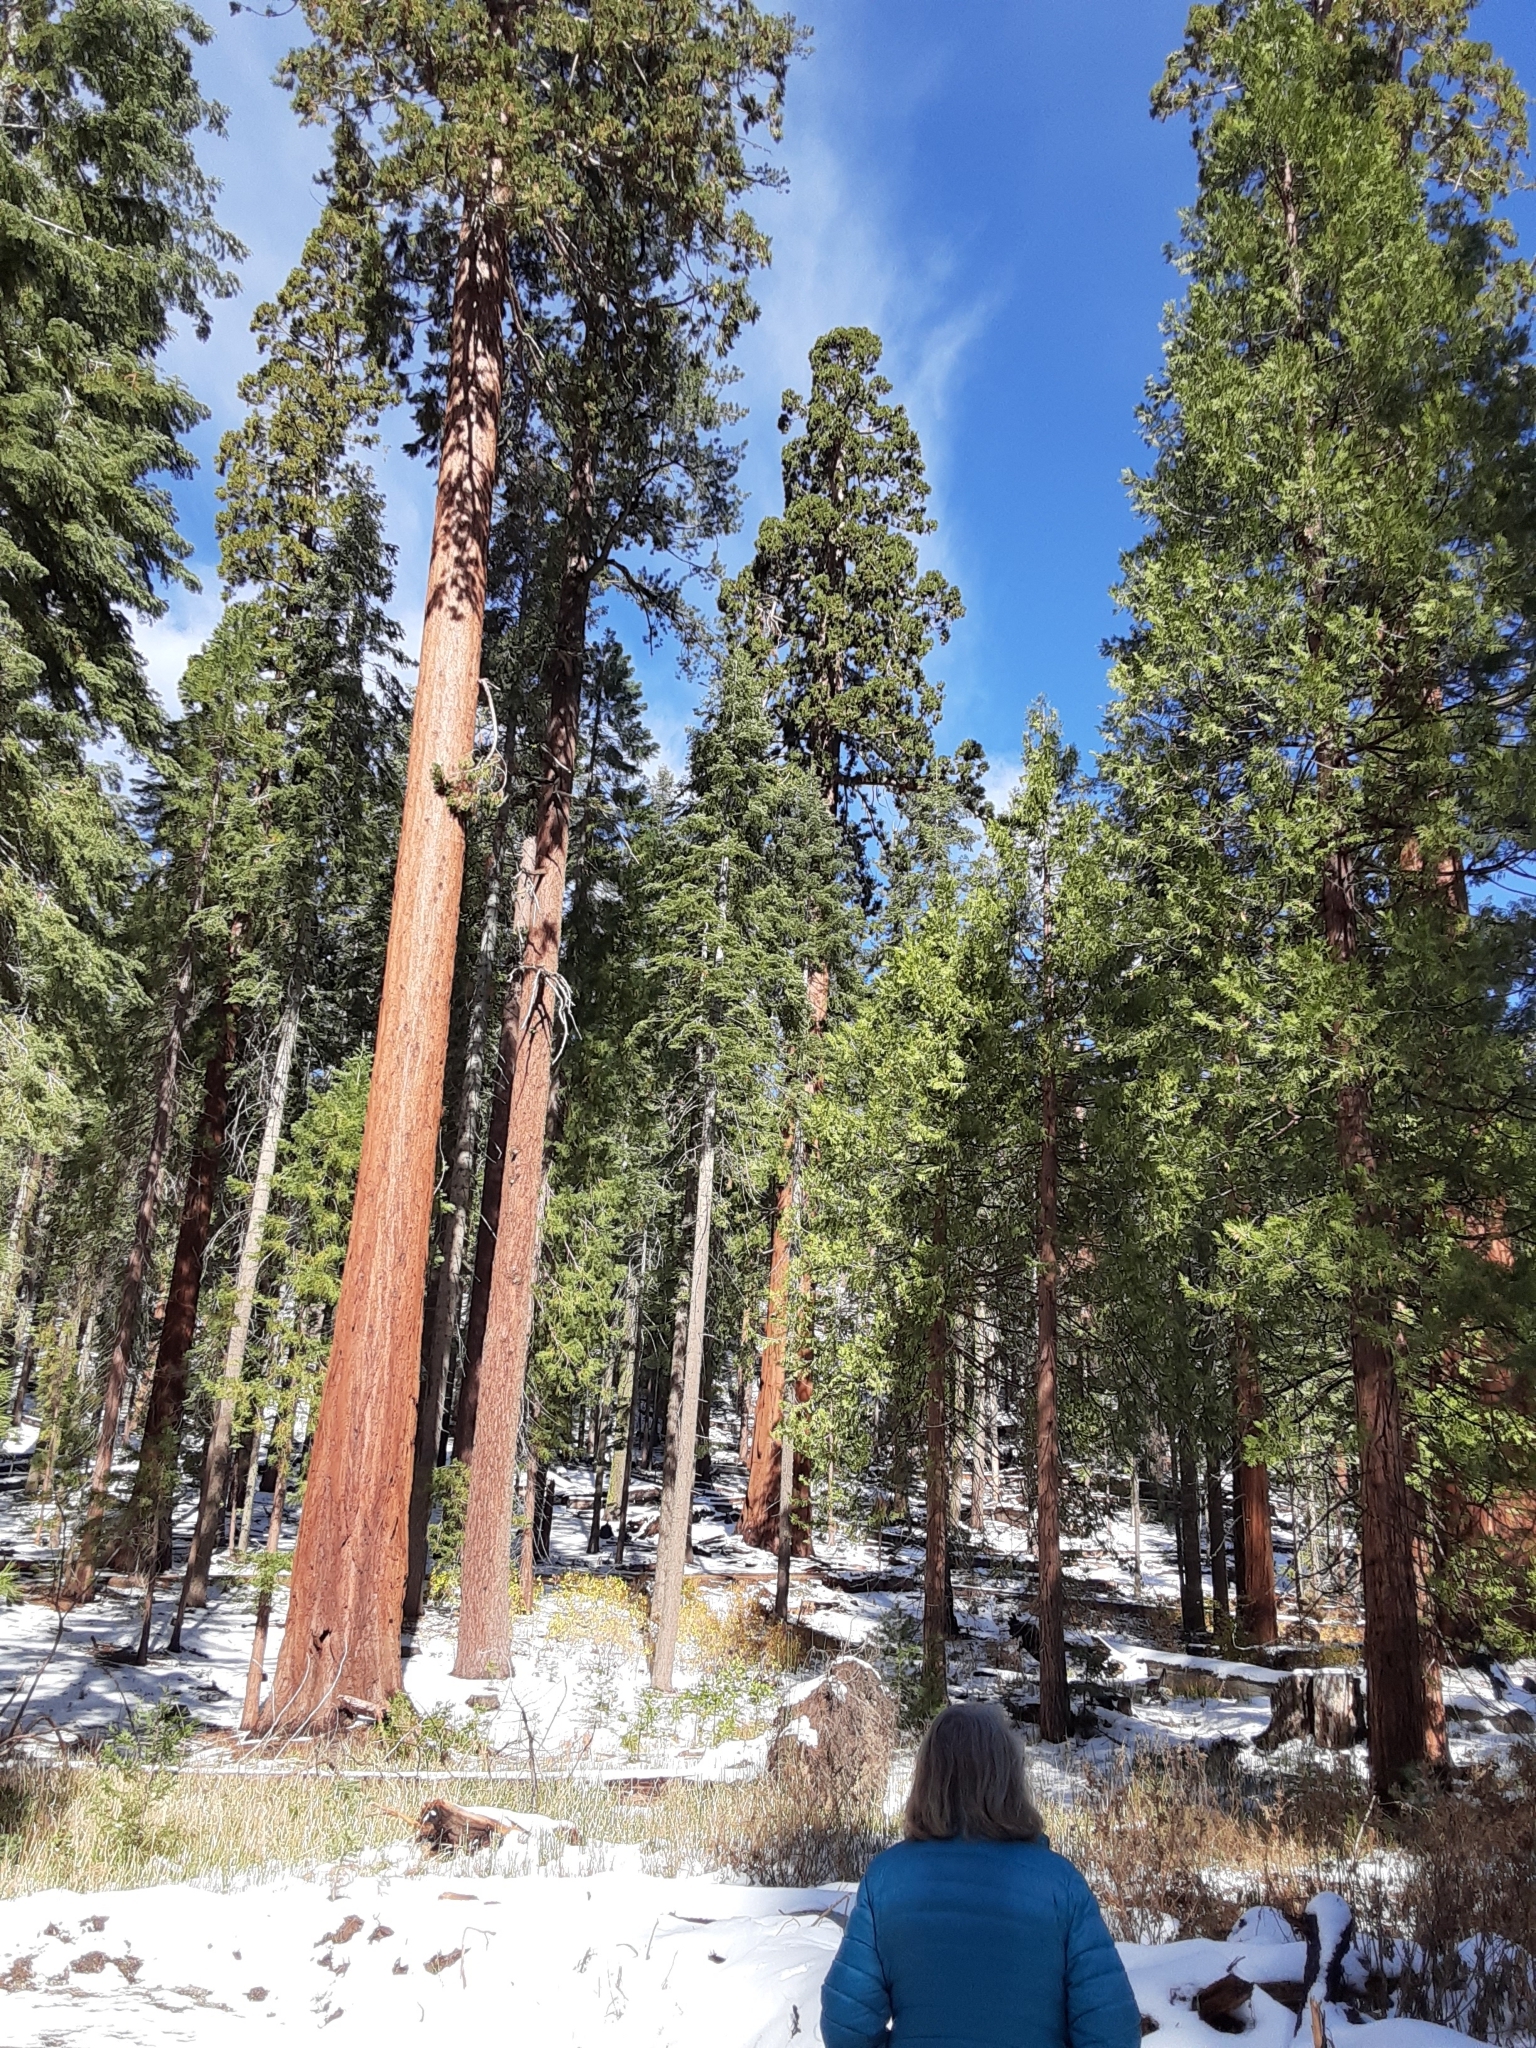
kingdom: Plantae
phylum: Tracheophyta
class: Pinopsida
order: Pinales
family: Cupressaceae
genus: Sequoiadendron
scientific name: Sequoiadendron giganteum
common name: Wellingtonia
